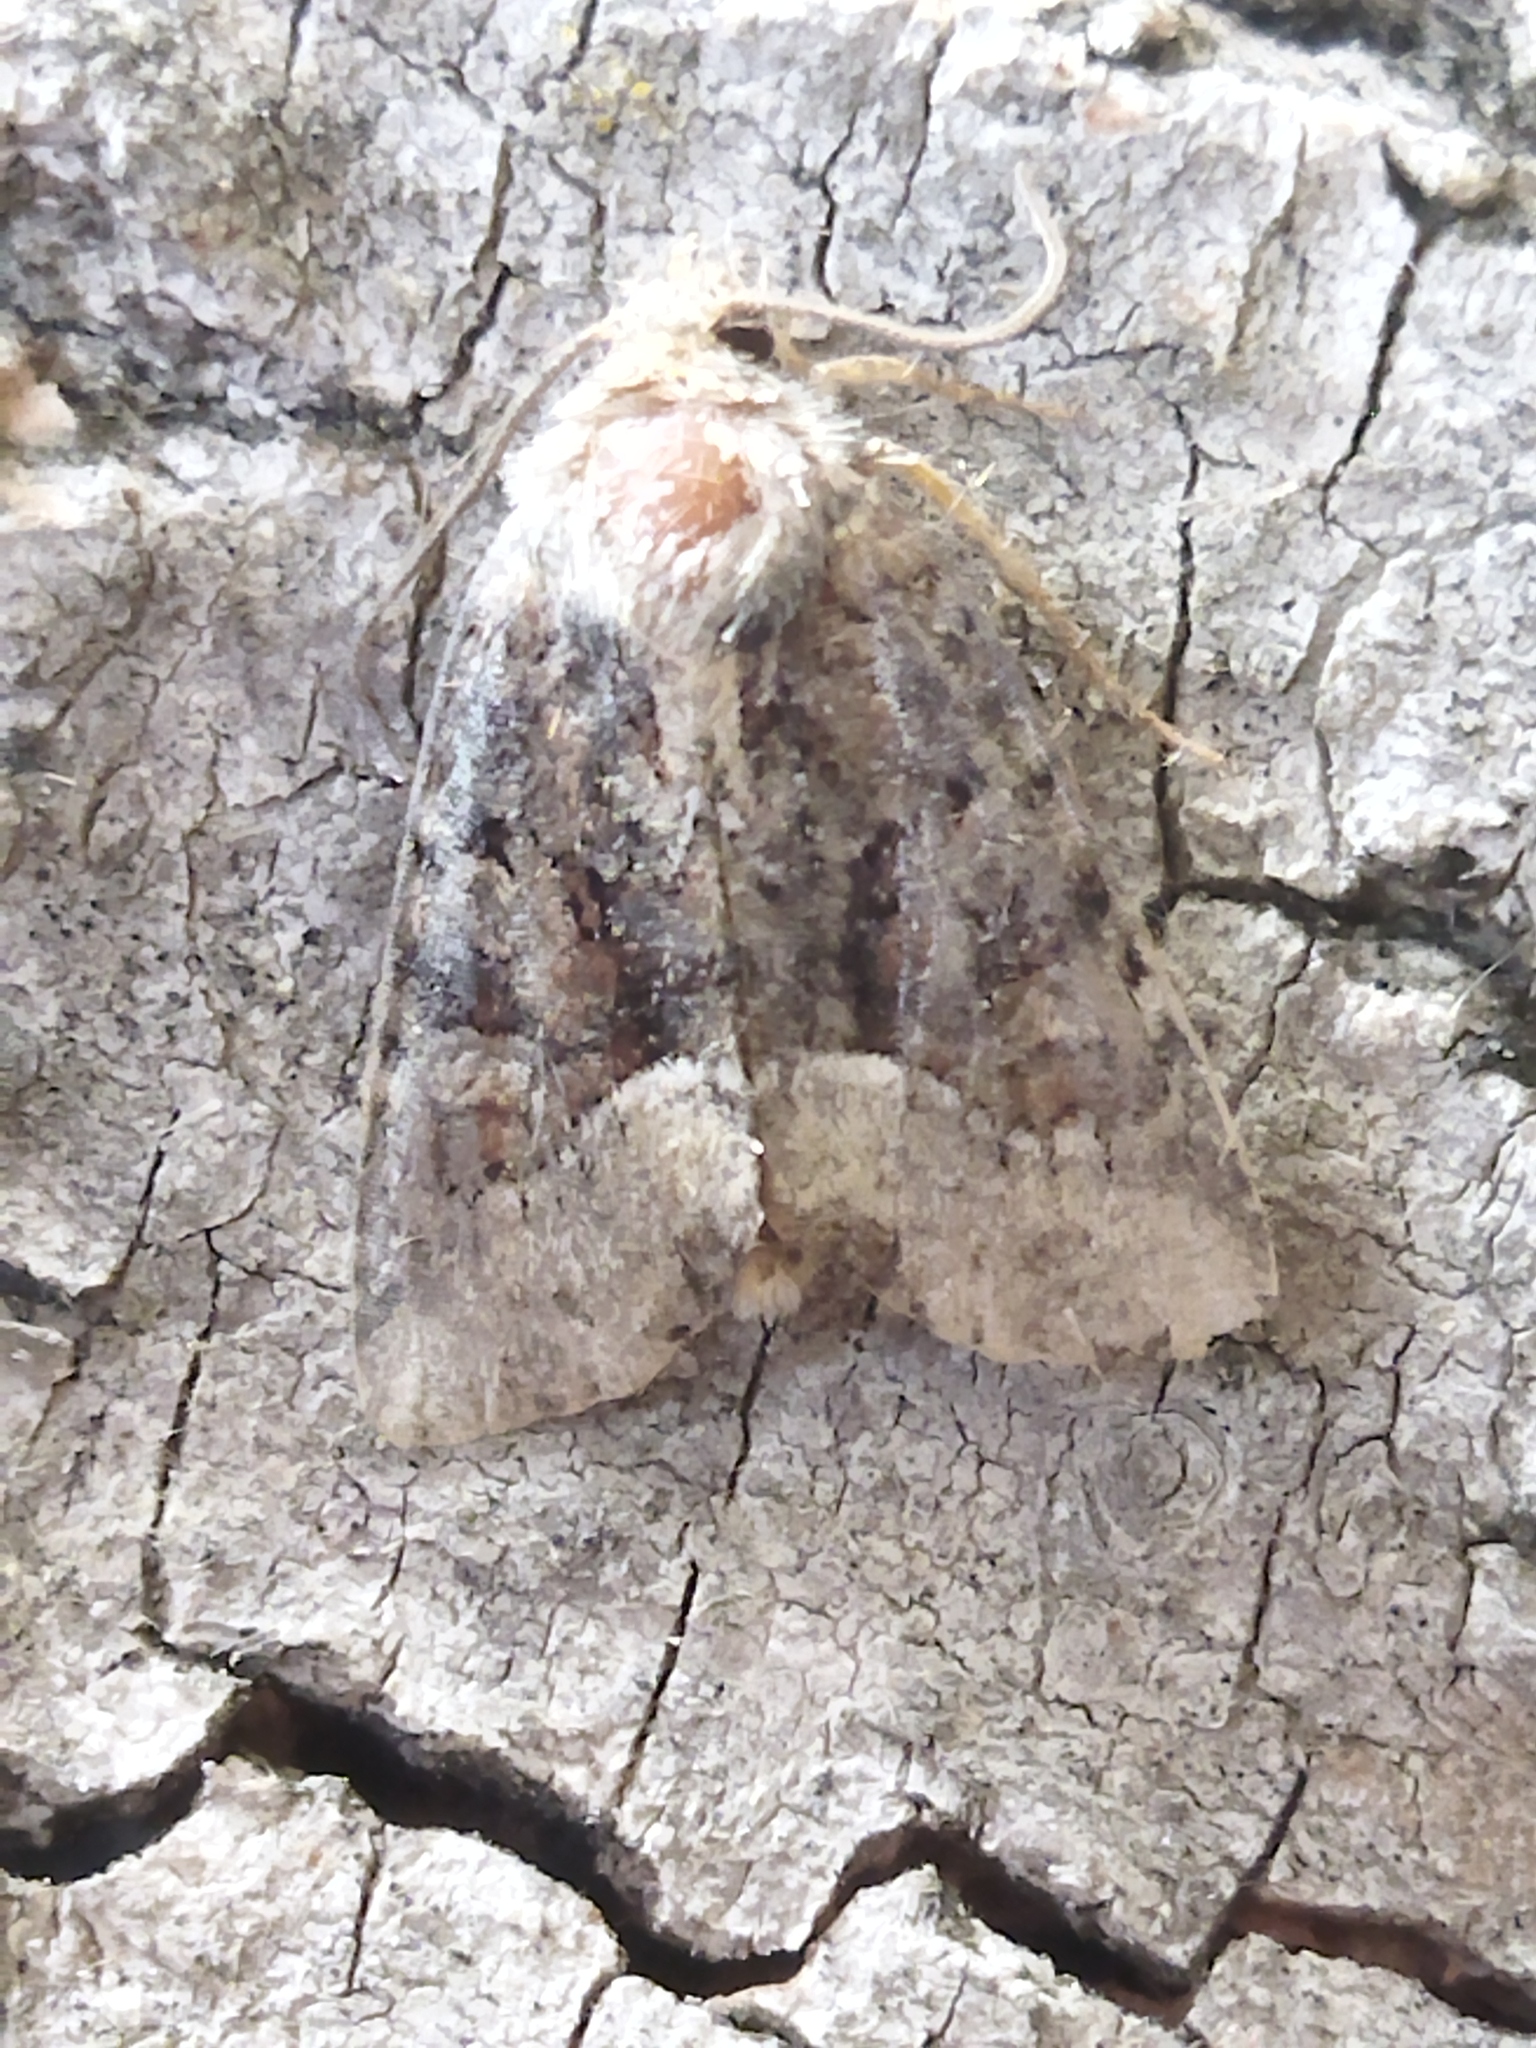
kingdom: Animalia
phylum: Arthropoda
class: Insecta
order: Lepidoptera
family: Noctuidae
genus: Oligia
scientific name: Oligia
